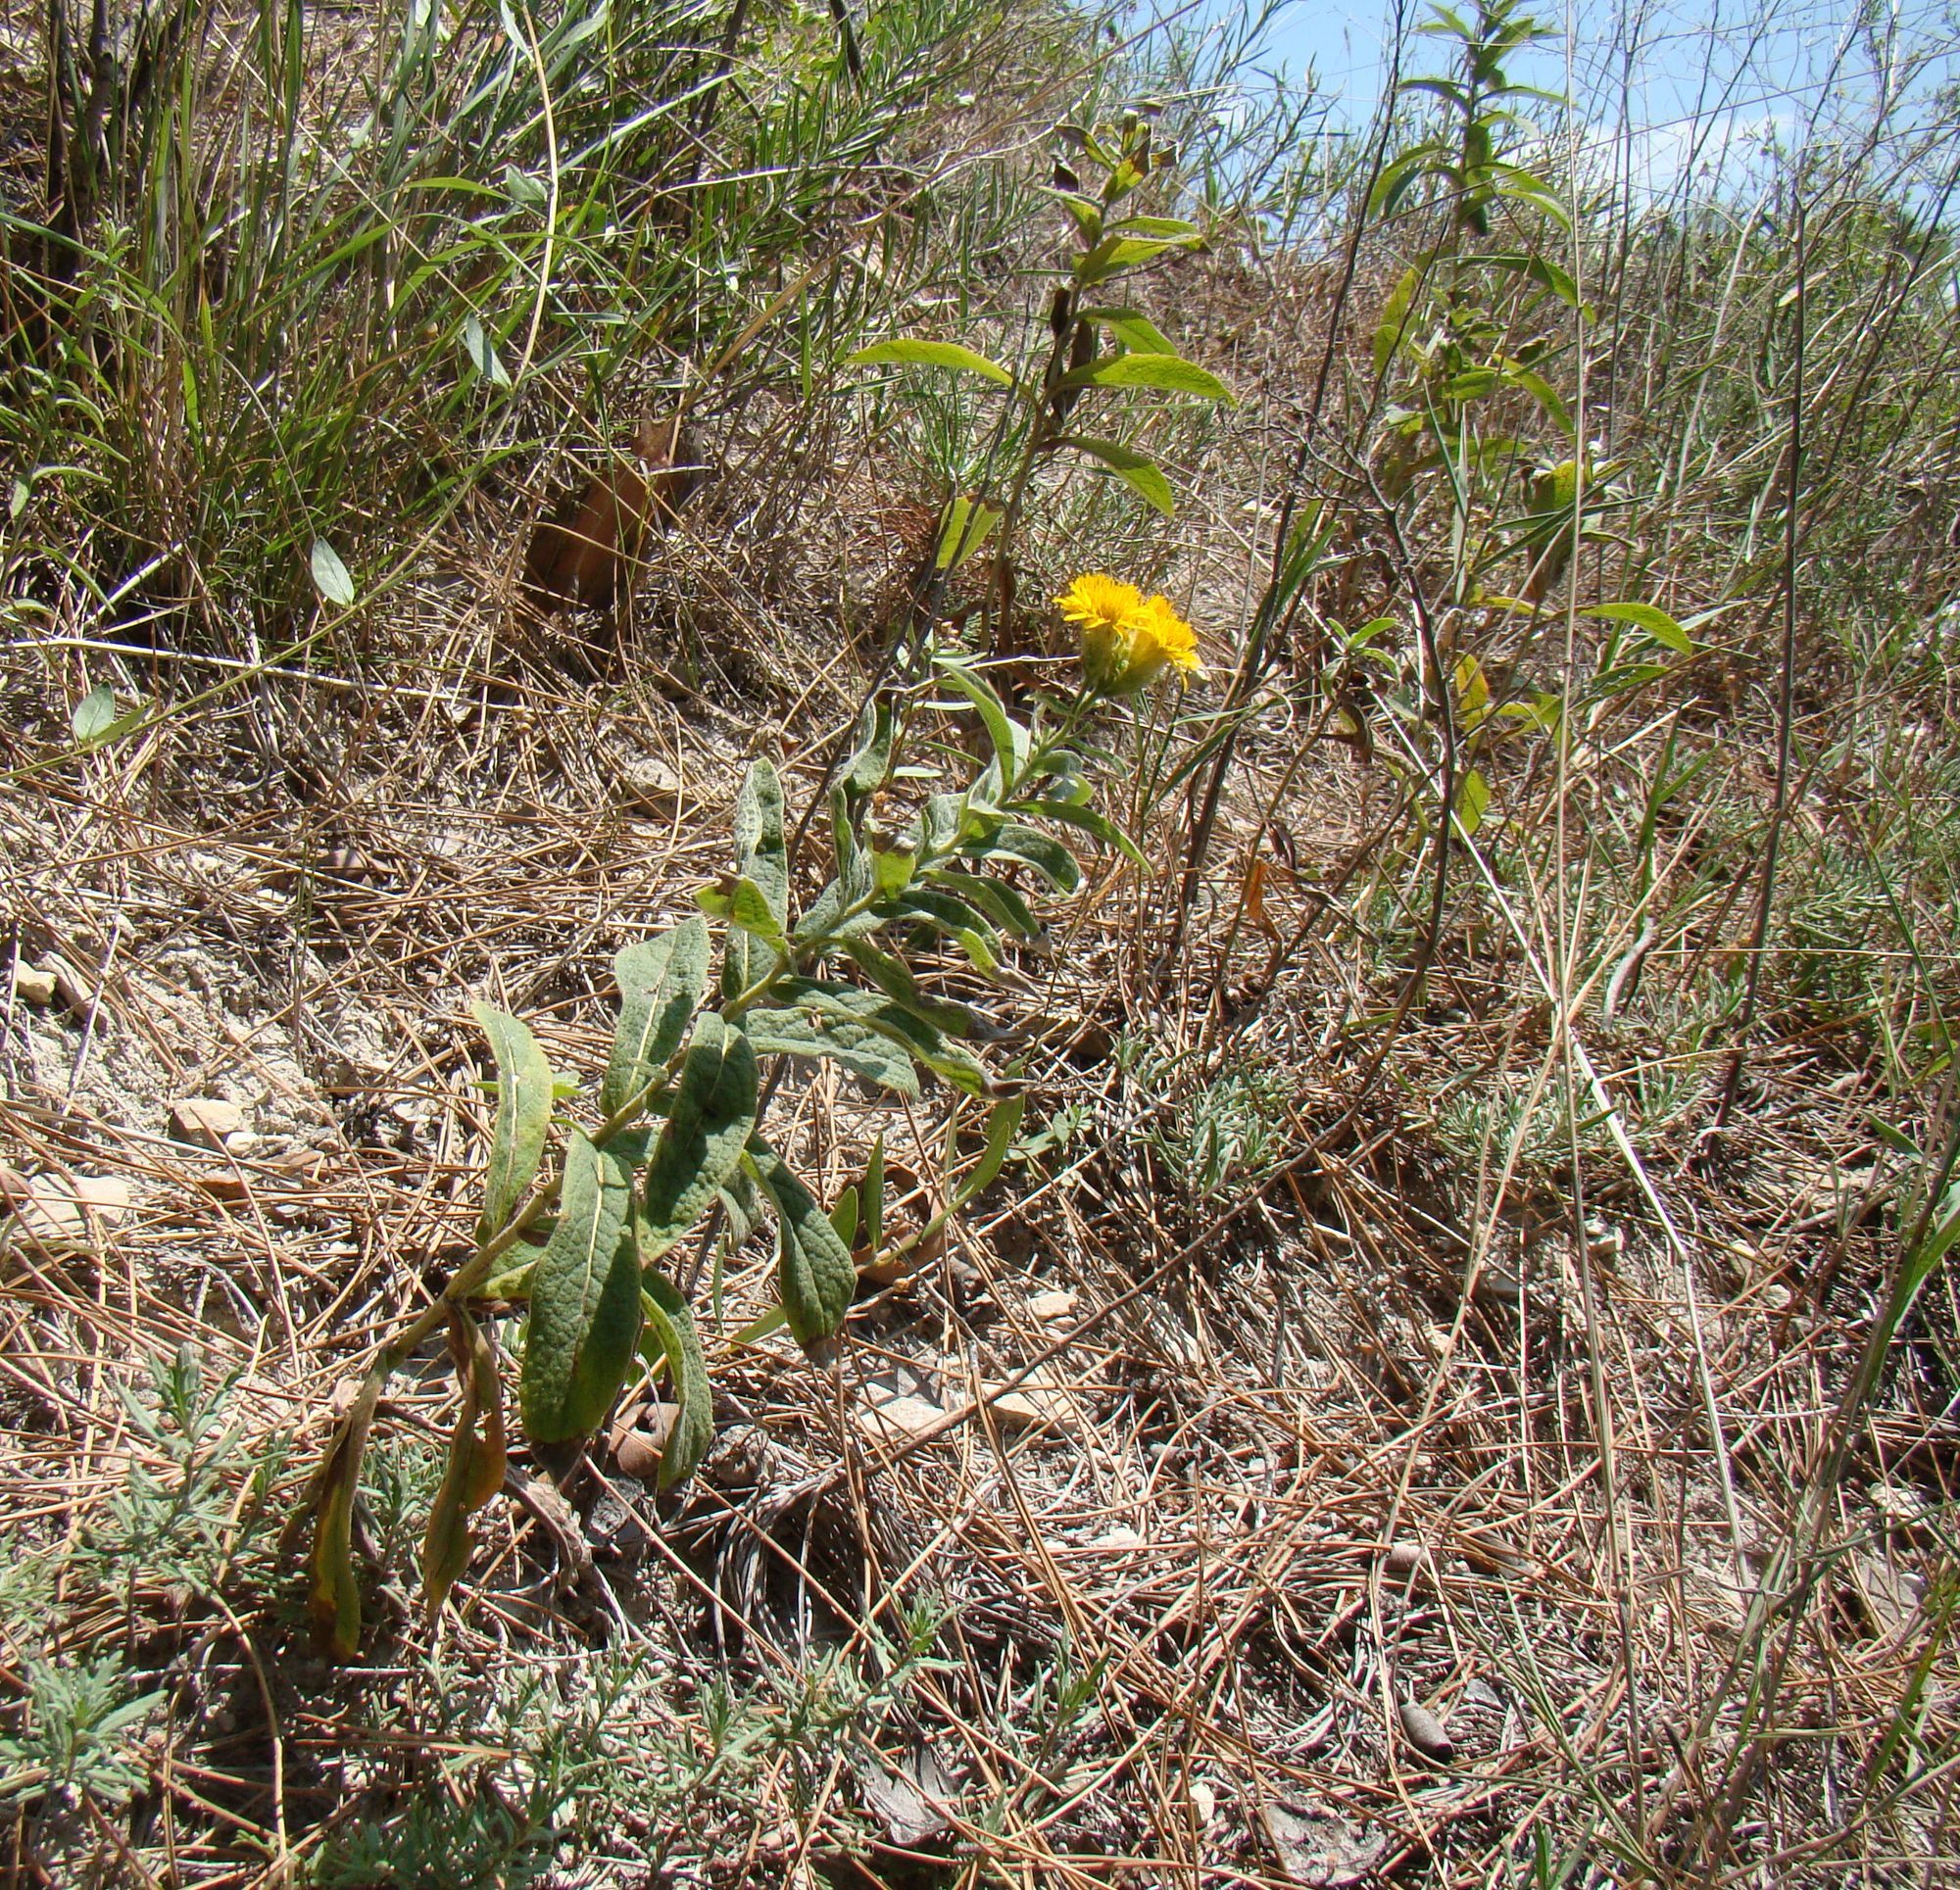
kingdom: Plantae
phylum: Tracheophyta
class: Magnoliopsida
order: Asterales
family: Asteraceae
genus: Pentanema
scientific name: Pentanema germanicum
